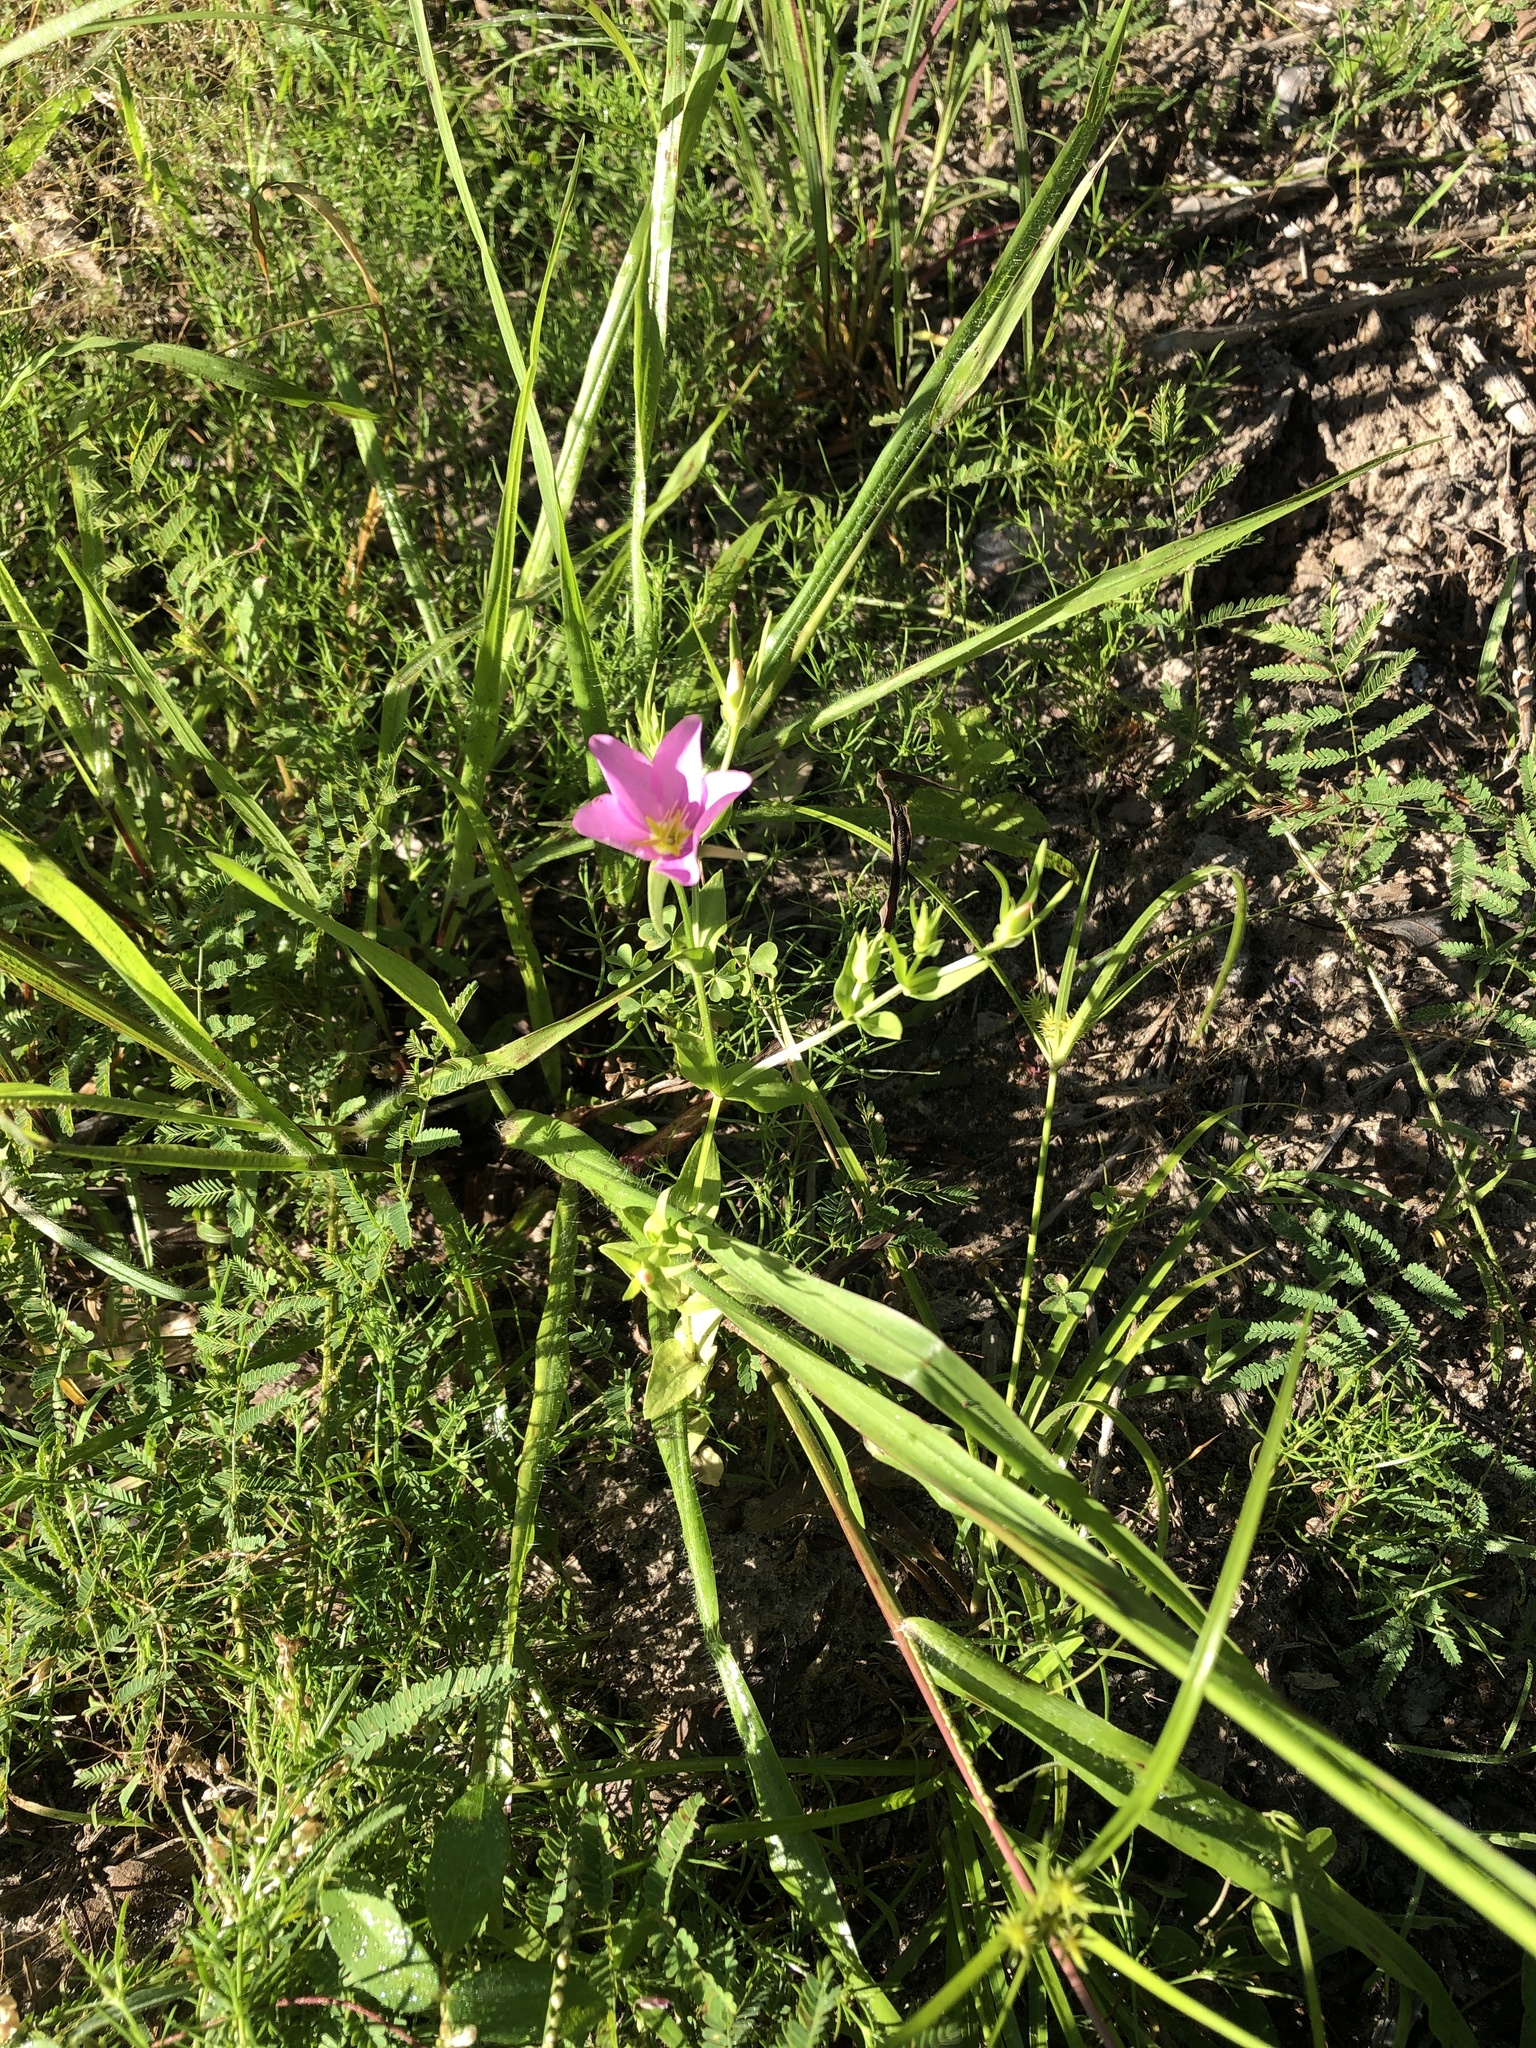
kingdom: Plantae
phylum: Tracheophyta
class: Magnoliopsida
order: Gentianales
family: Gentianaceae
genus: Sabatia
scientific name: Sabatia campestris
